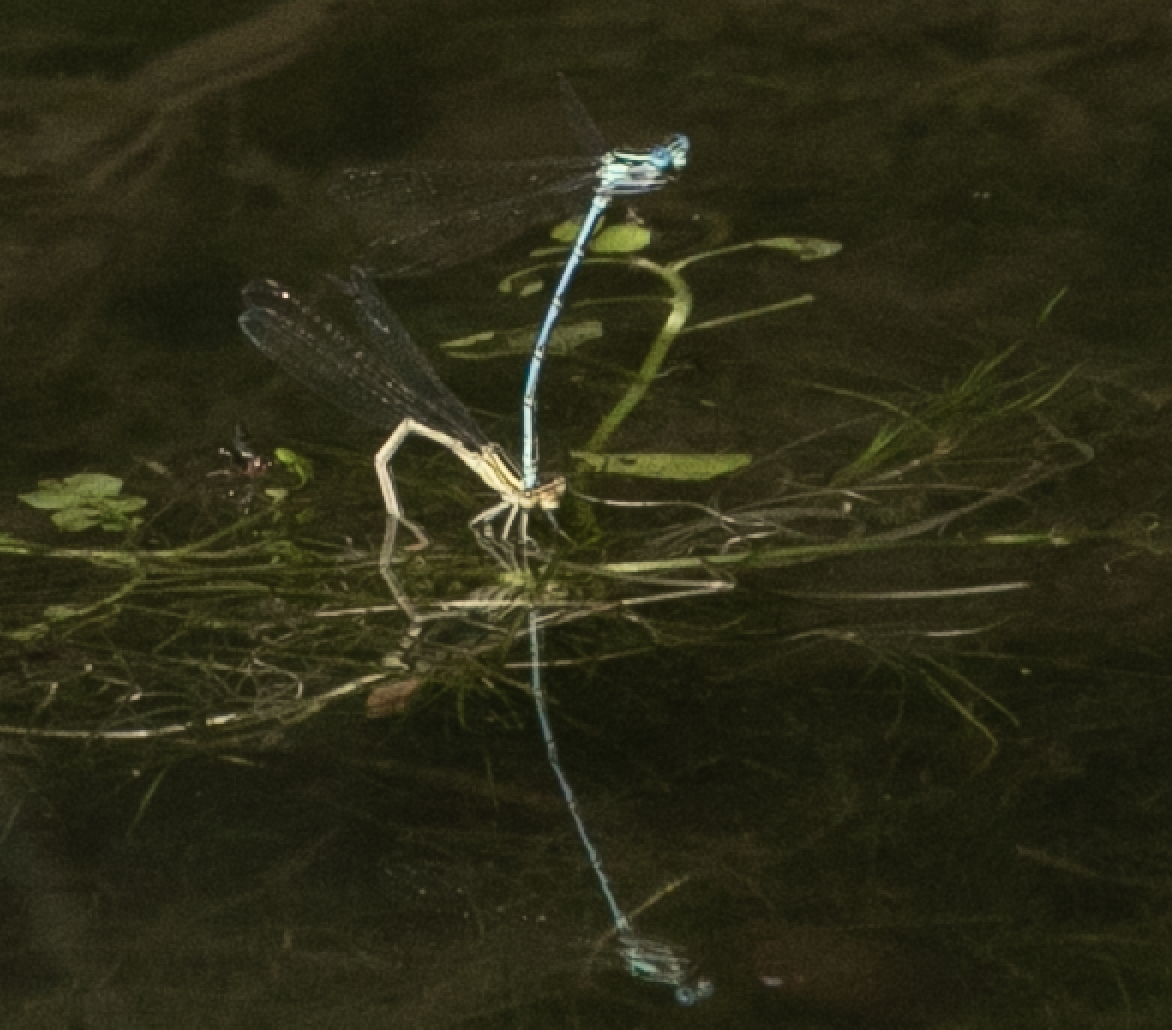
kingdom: Animalia
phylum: Arthropoda
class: Insecta
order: Odonata
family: Platycnemididae
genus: Platycnemis
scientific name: Platycnemis pennipes
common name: White-legged damselfly
